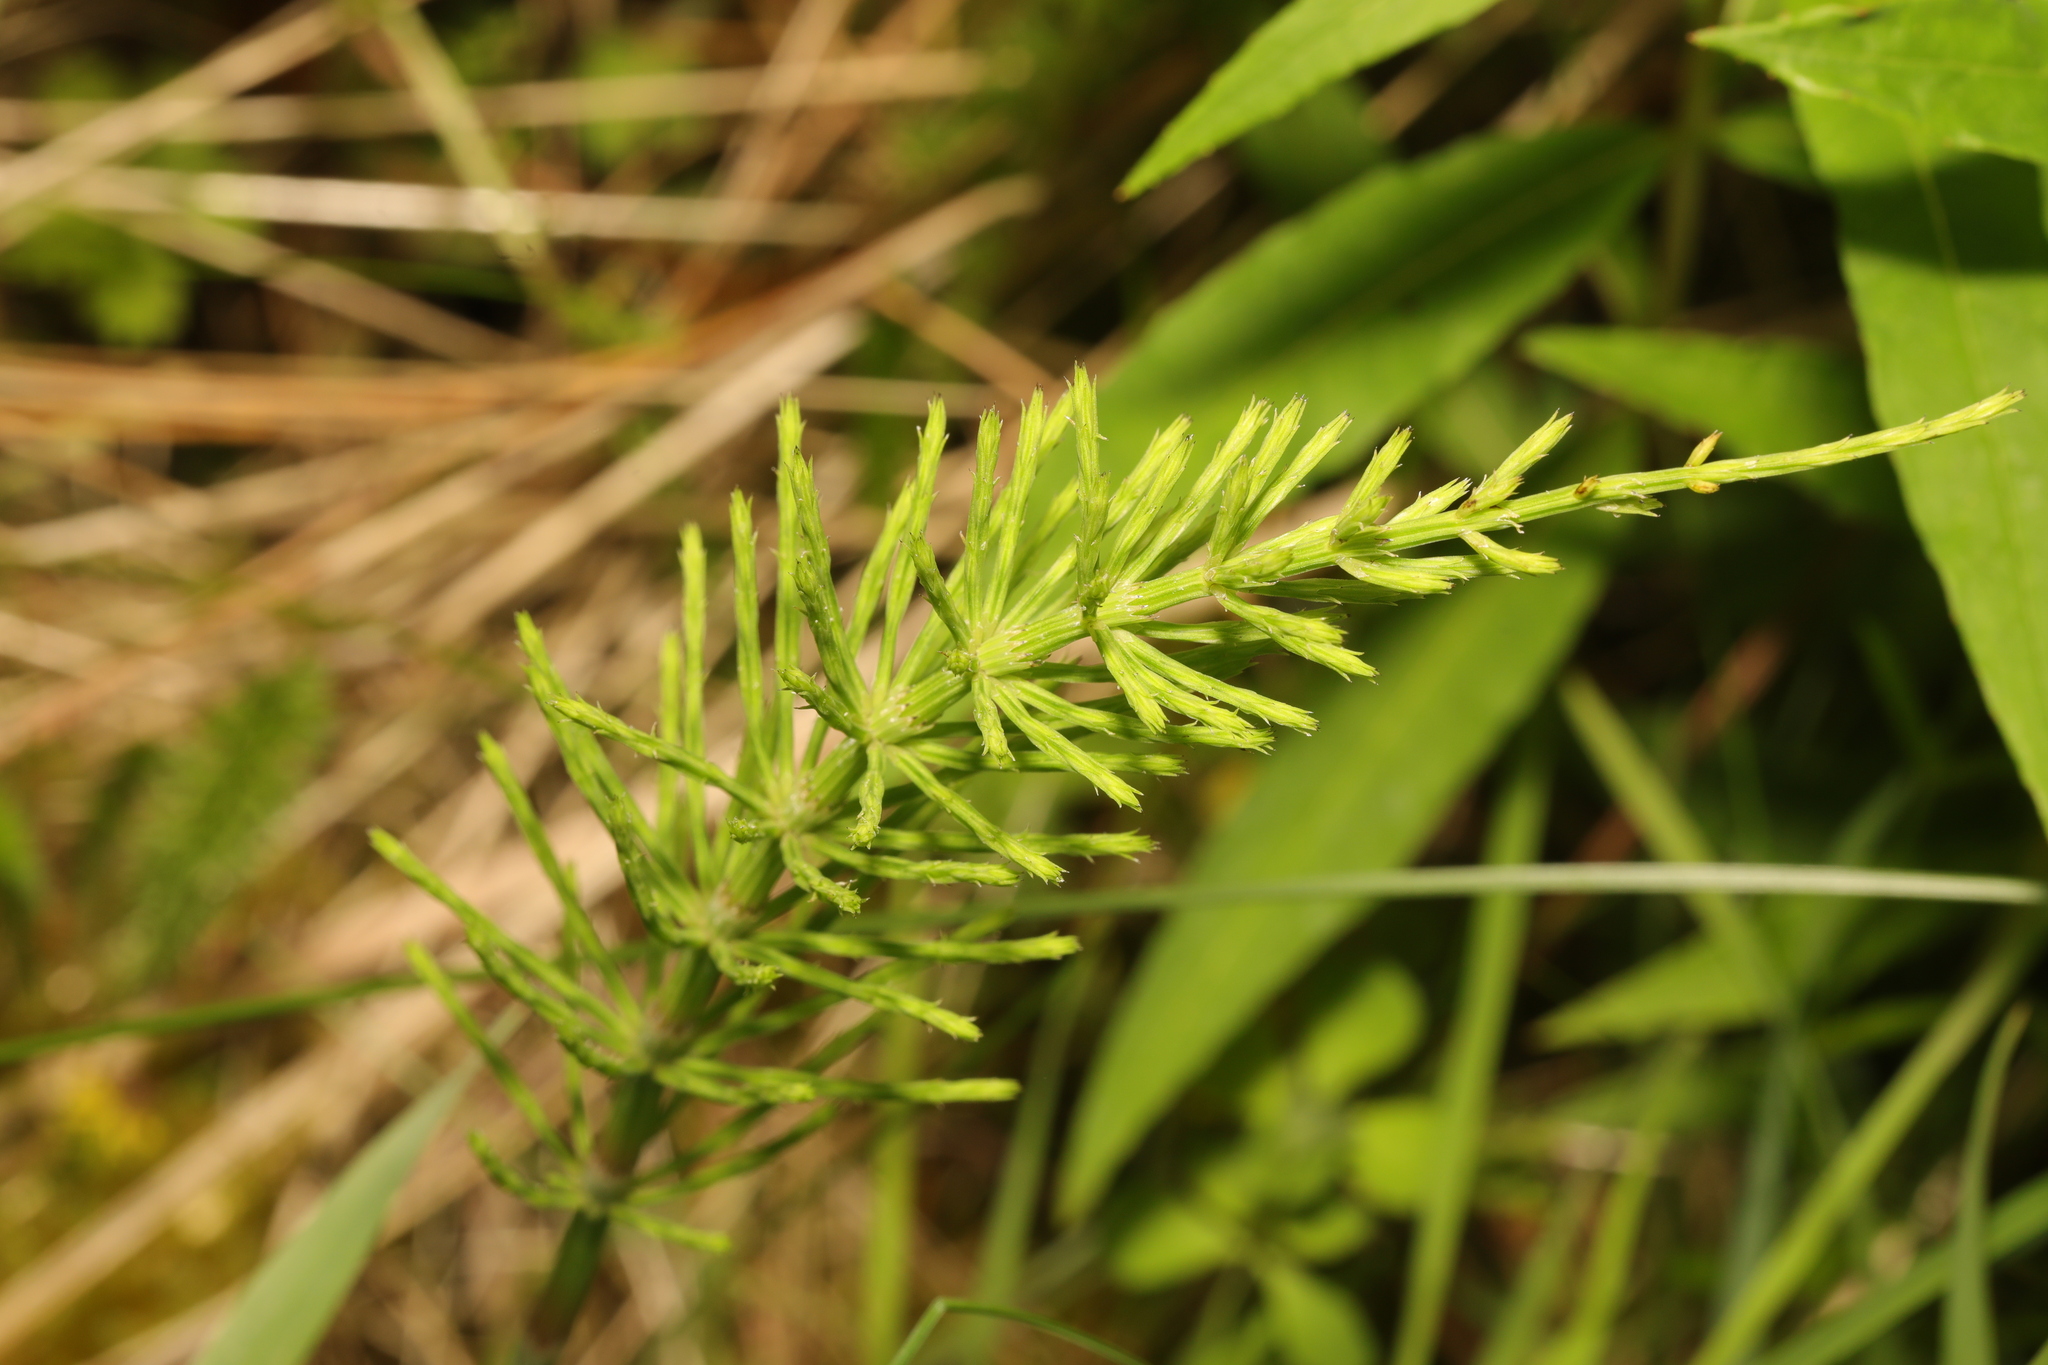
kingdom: Plantae
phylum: Tracheophyta
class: Polypodiopsida
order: Equisetales
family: Equisetaceae
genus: Equisetum
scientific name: Equisetum arvense
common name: Field horsetail
